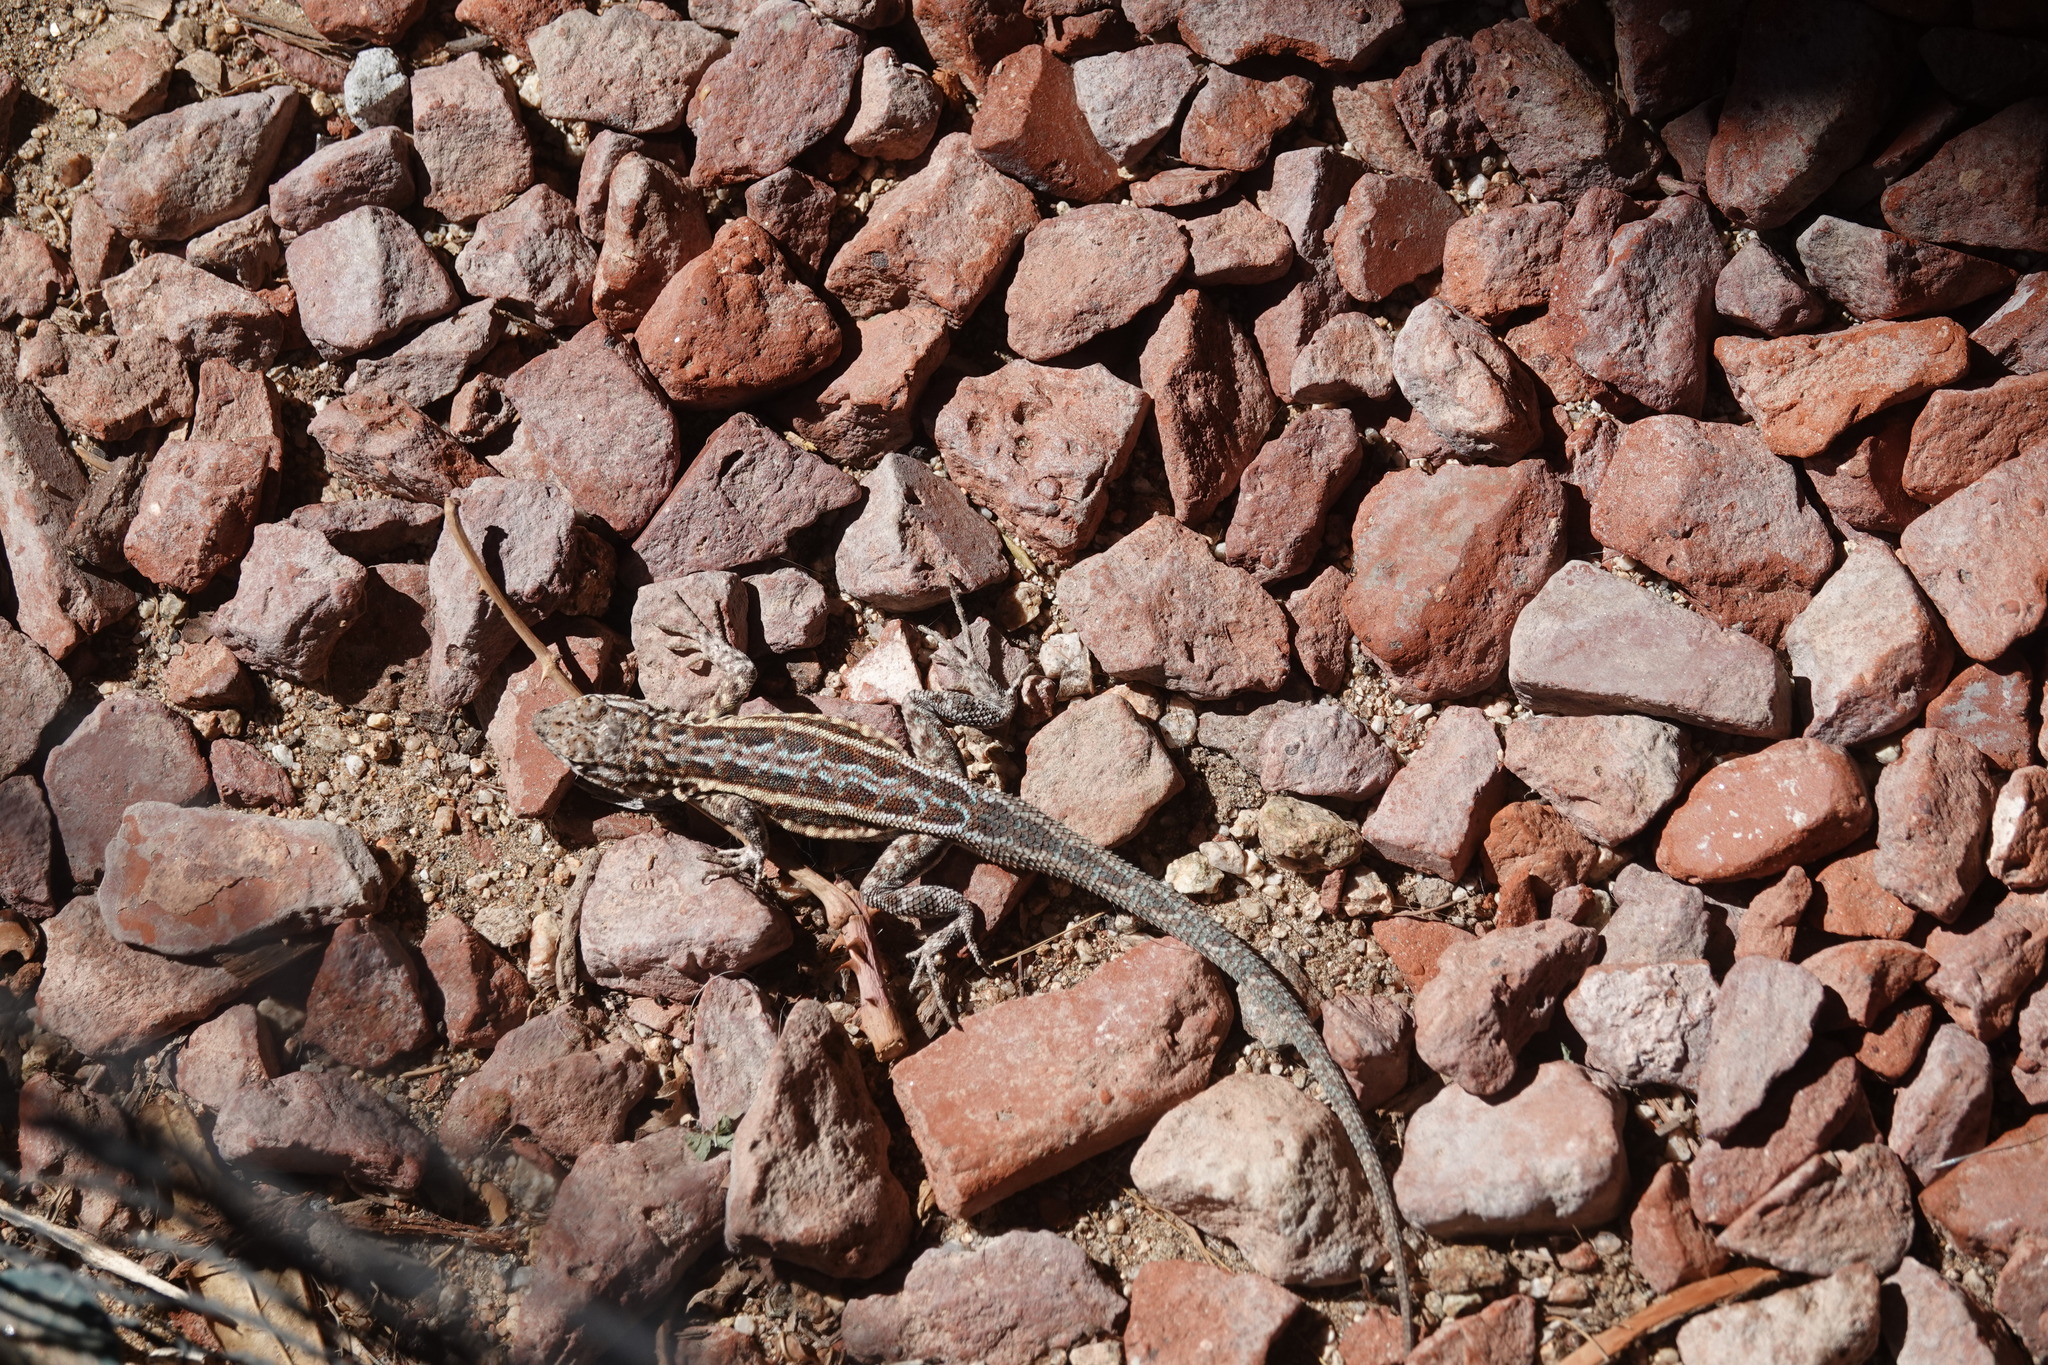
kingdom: Animalia
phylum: Chordata
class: Squamata
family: Phrynosomatidae
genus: Uta
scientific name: Uta stansburiana
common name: Side-blotched lizard
